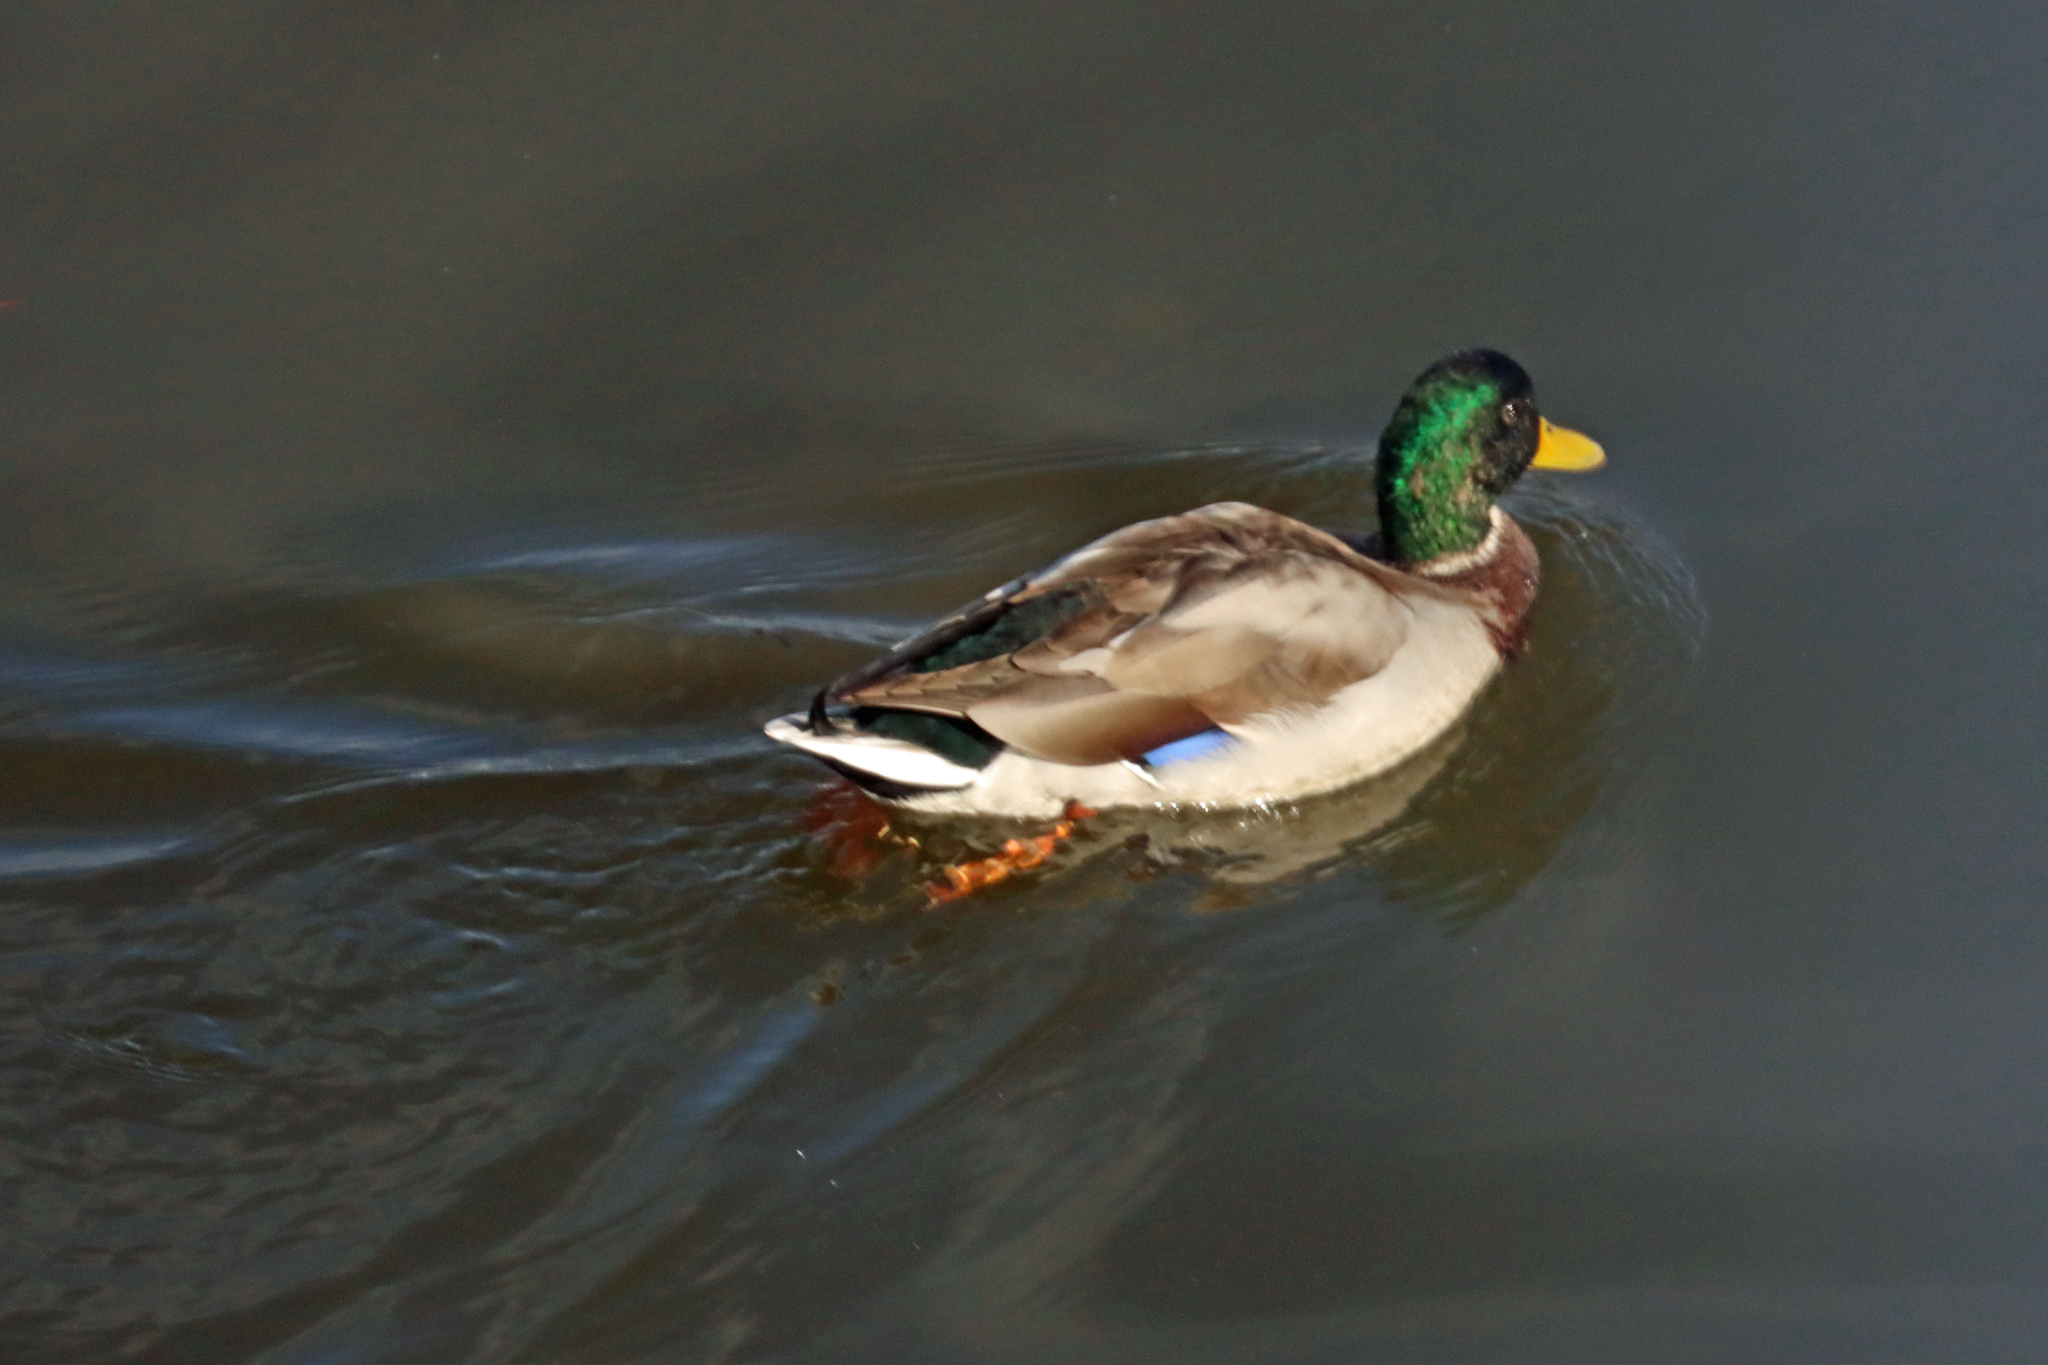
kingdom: Animalia
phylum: Chordata
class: Aves
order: Anseriformes
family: Anatidae
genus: Anas
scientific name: Anas platyrhynchos
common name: Mallard
